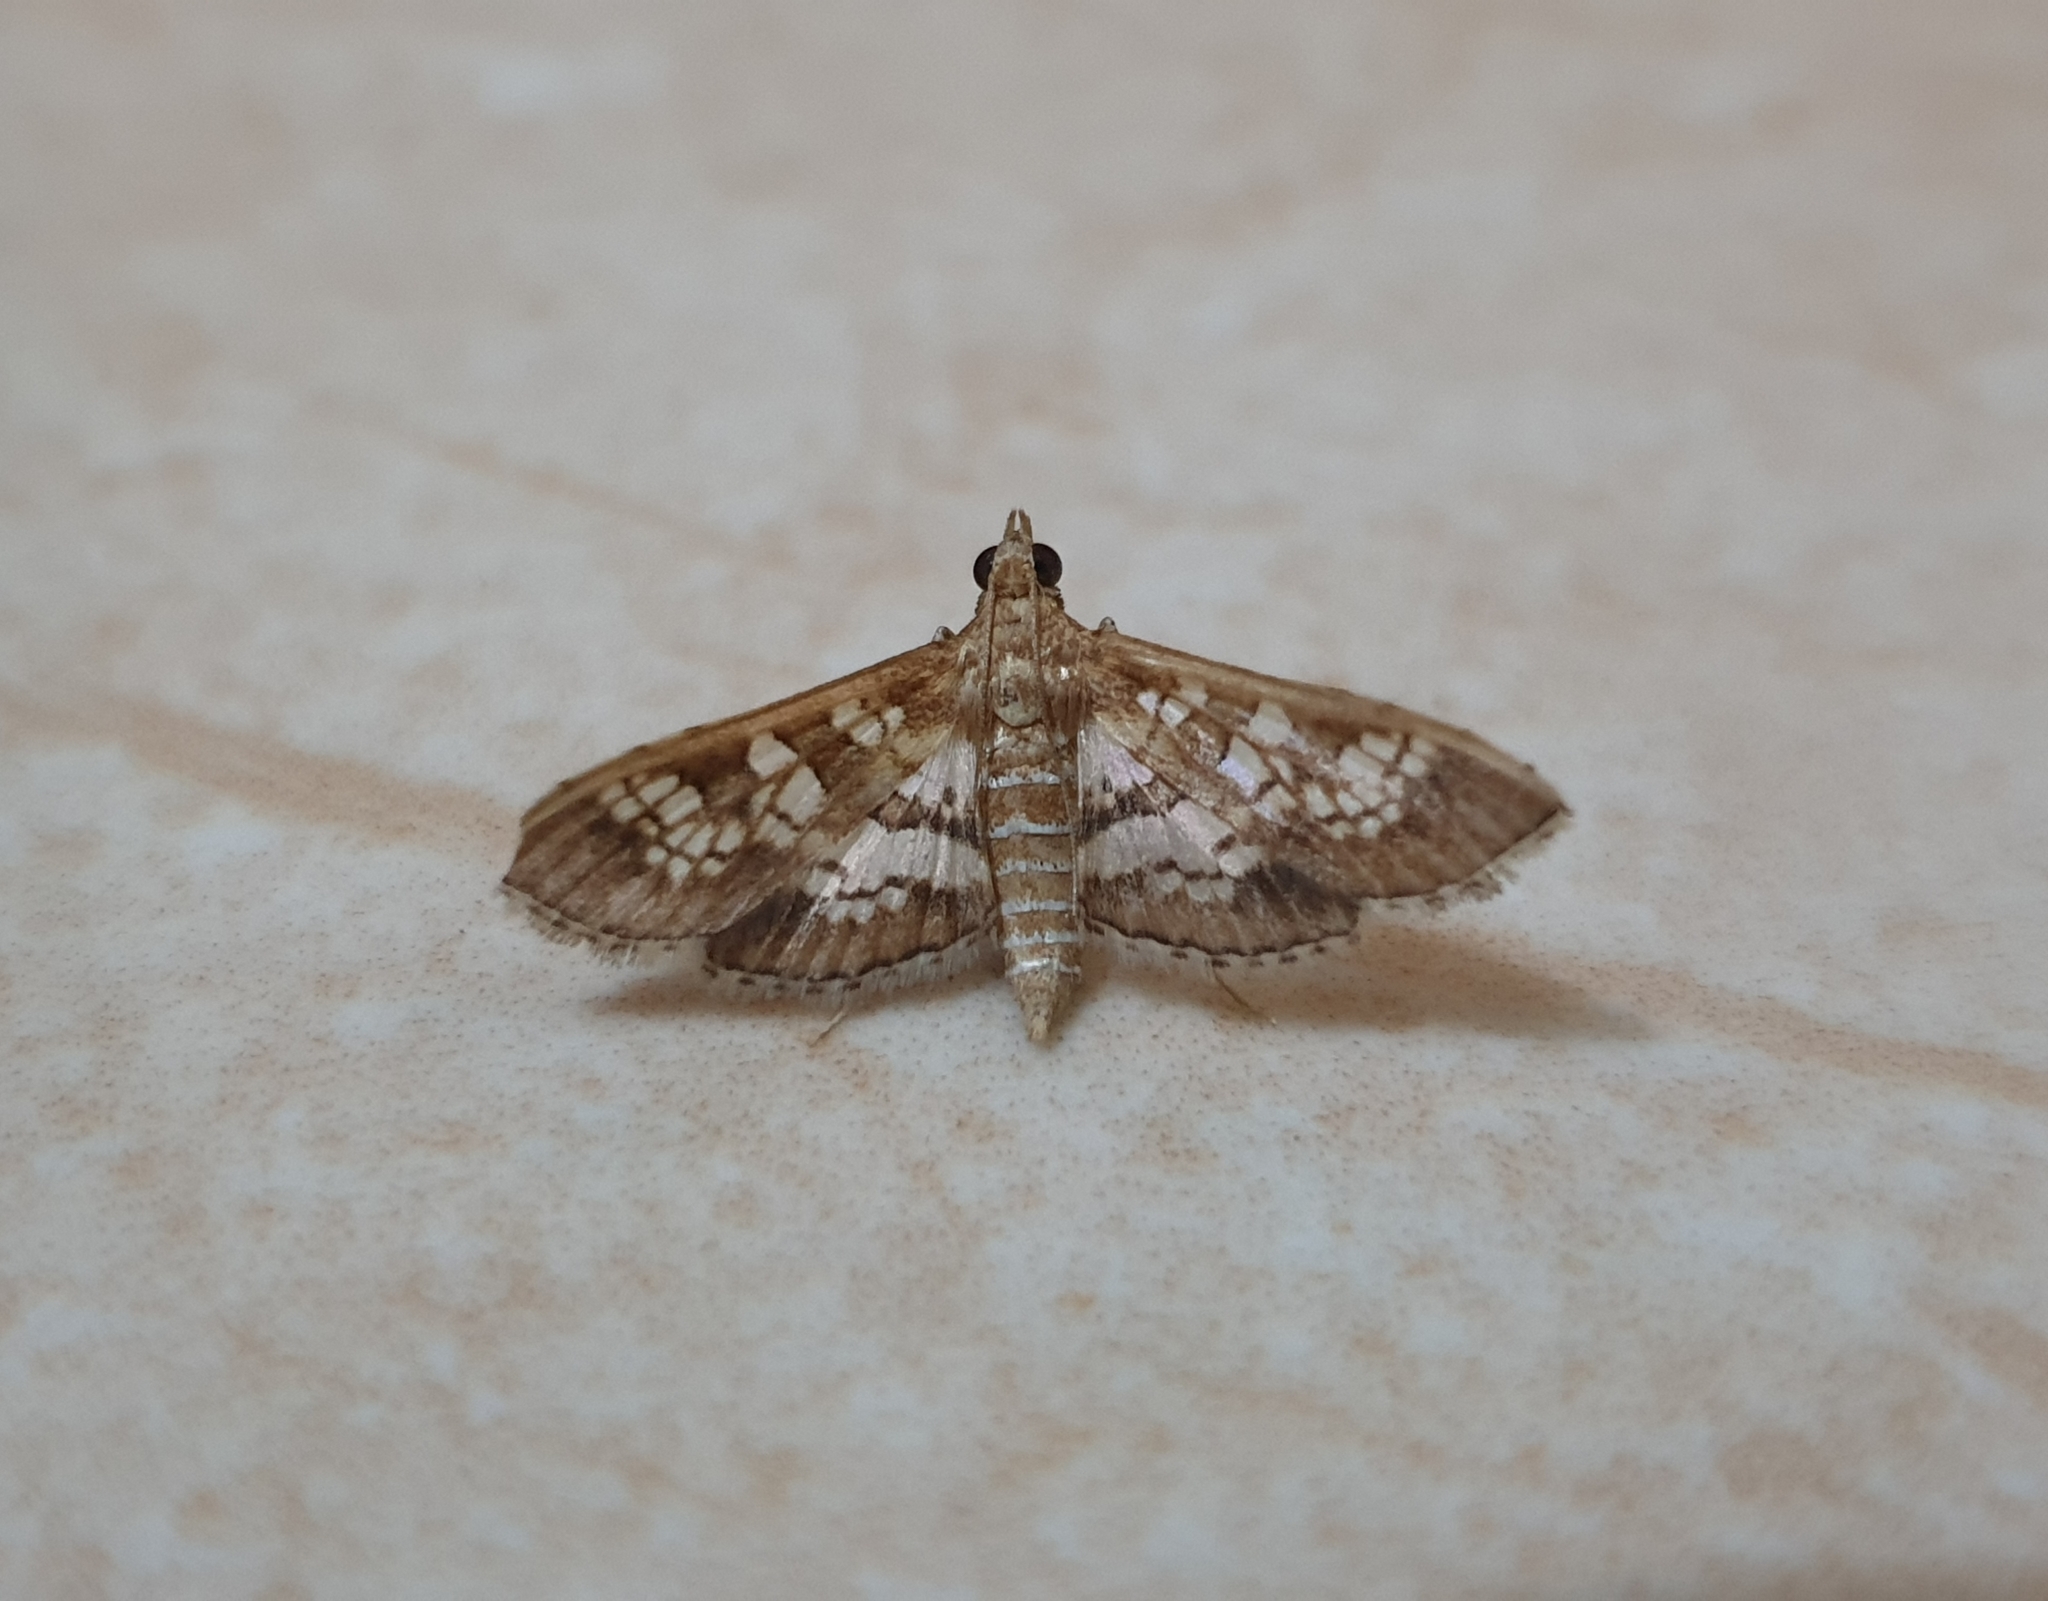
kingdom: Animalia
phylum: Arthropoda
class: Insecta
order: Lepidoptera
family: Crambidae
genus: Sameodes
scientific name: Sameodes cancellalis
